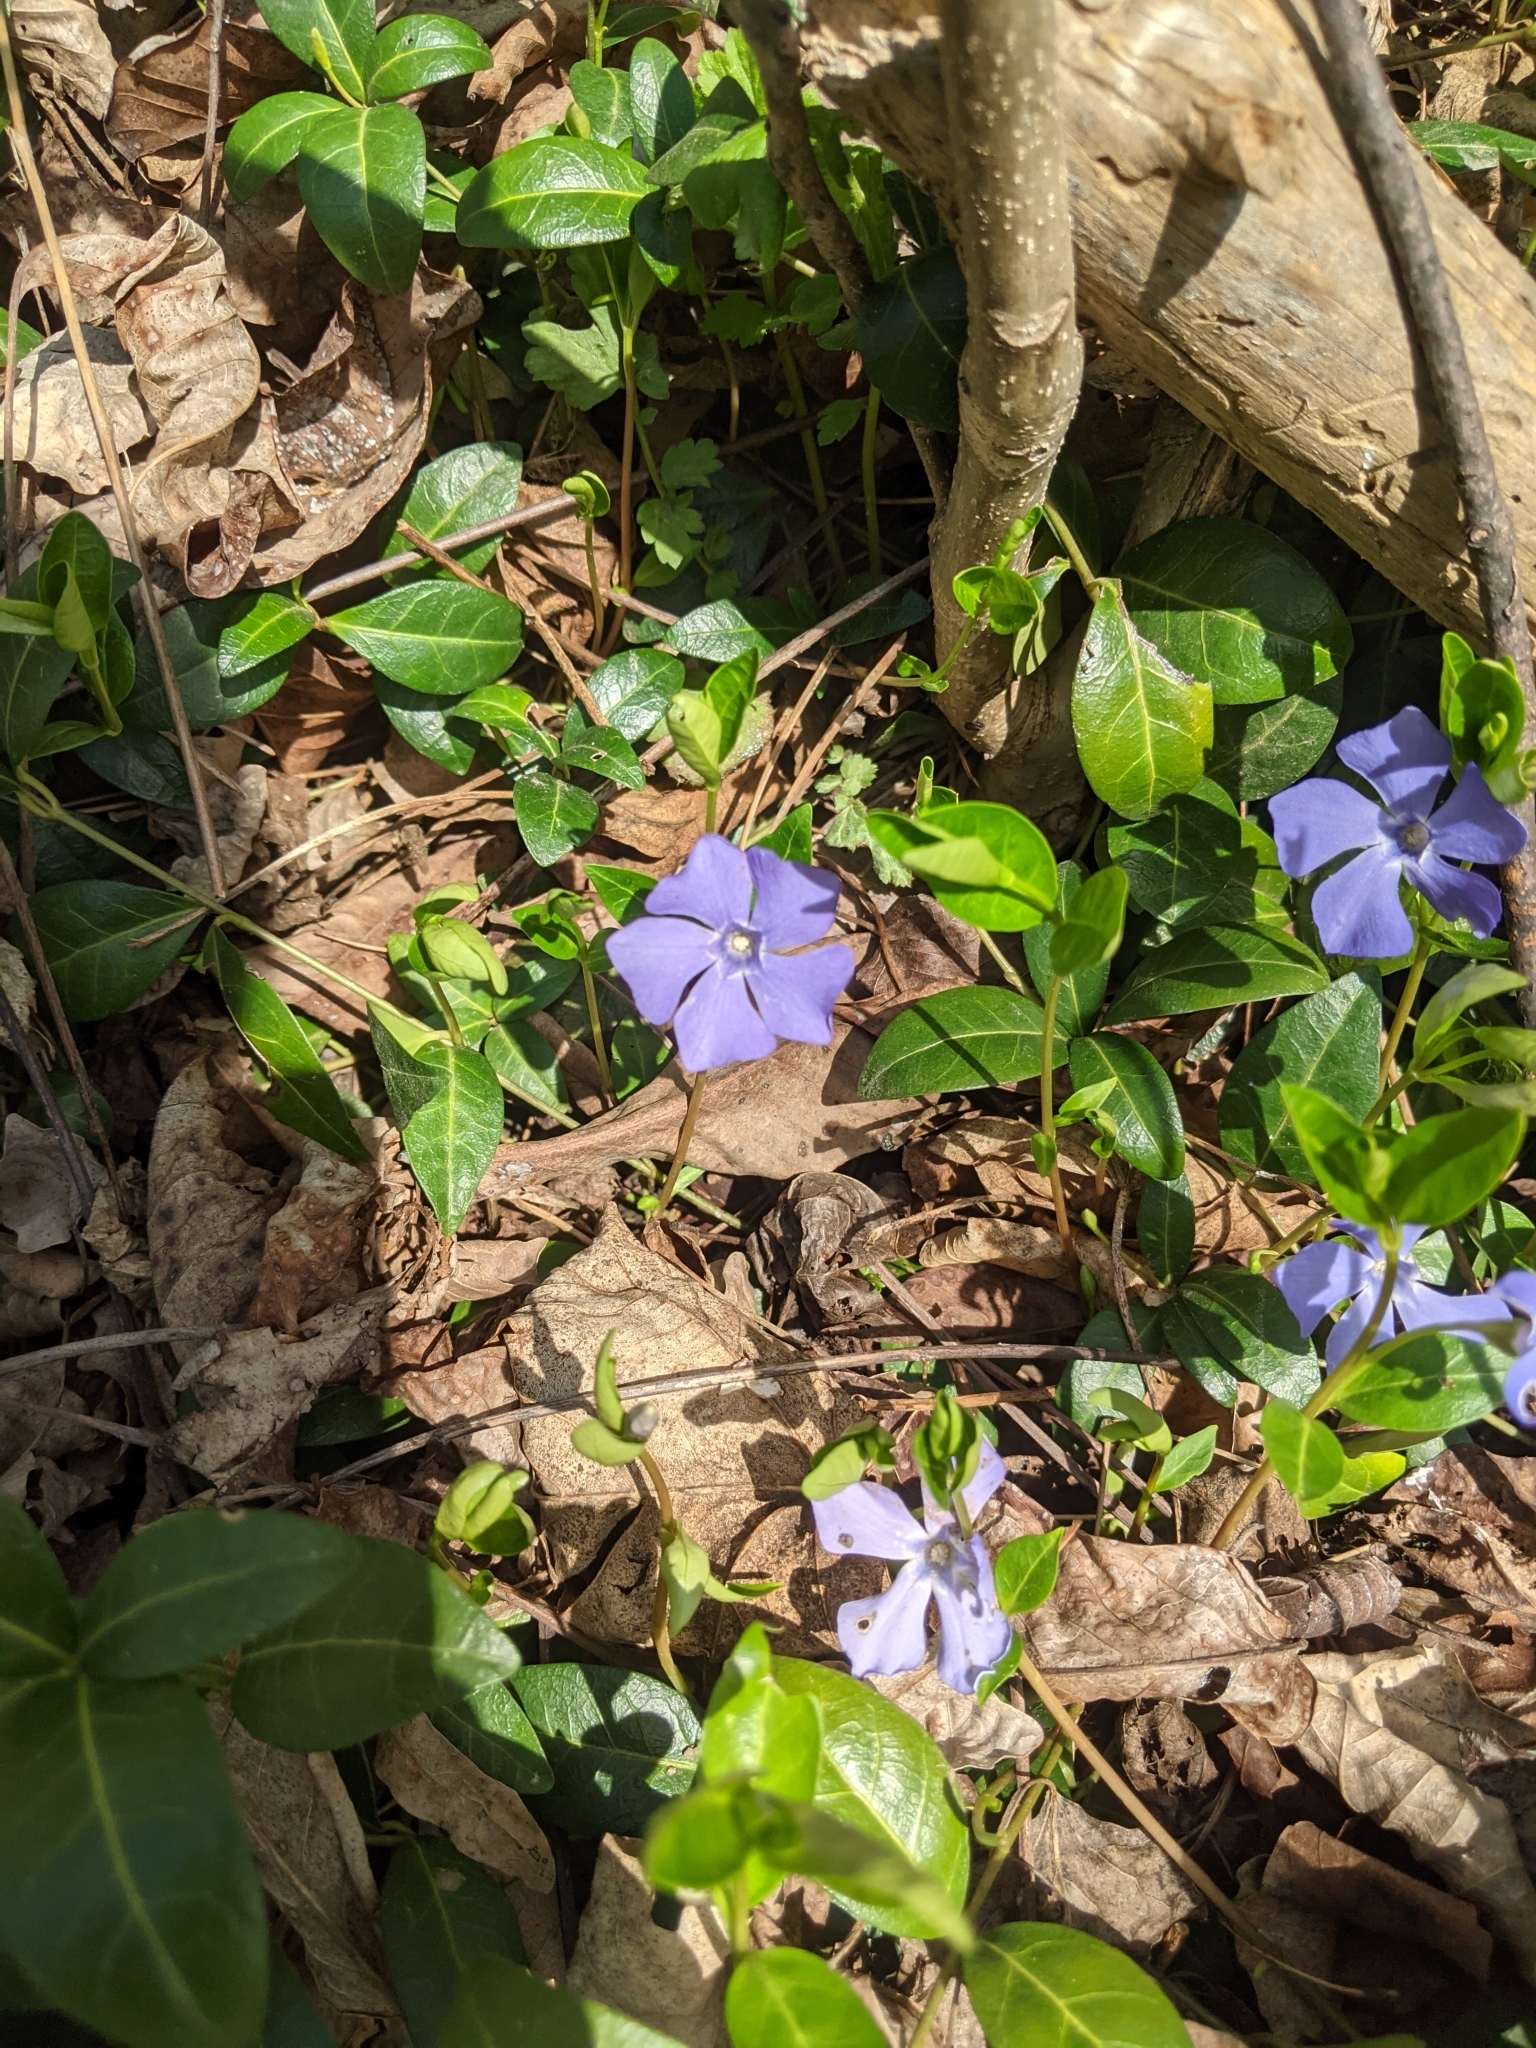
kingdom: Plantae
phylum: Tracheophyta
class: Magnoliopsida
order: Gentianales
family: Apocynaceae
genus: Vinca
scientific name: Vinca minor
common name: Lesser periwinkle
